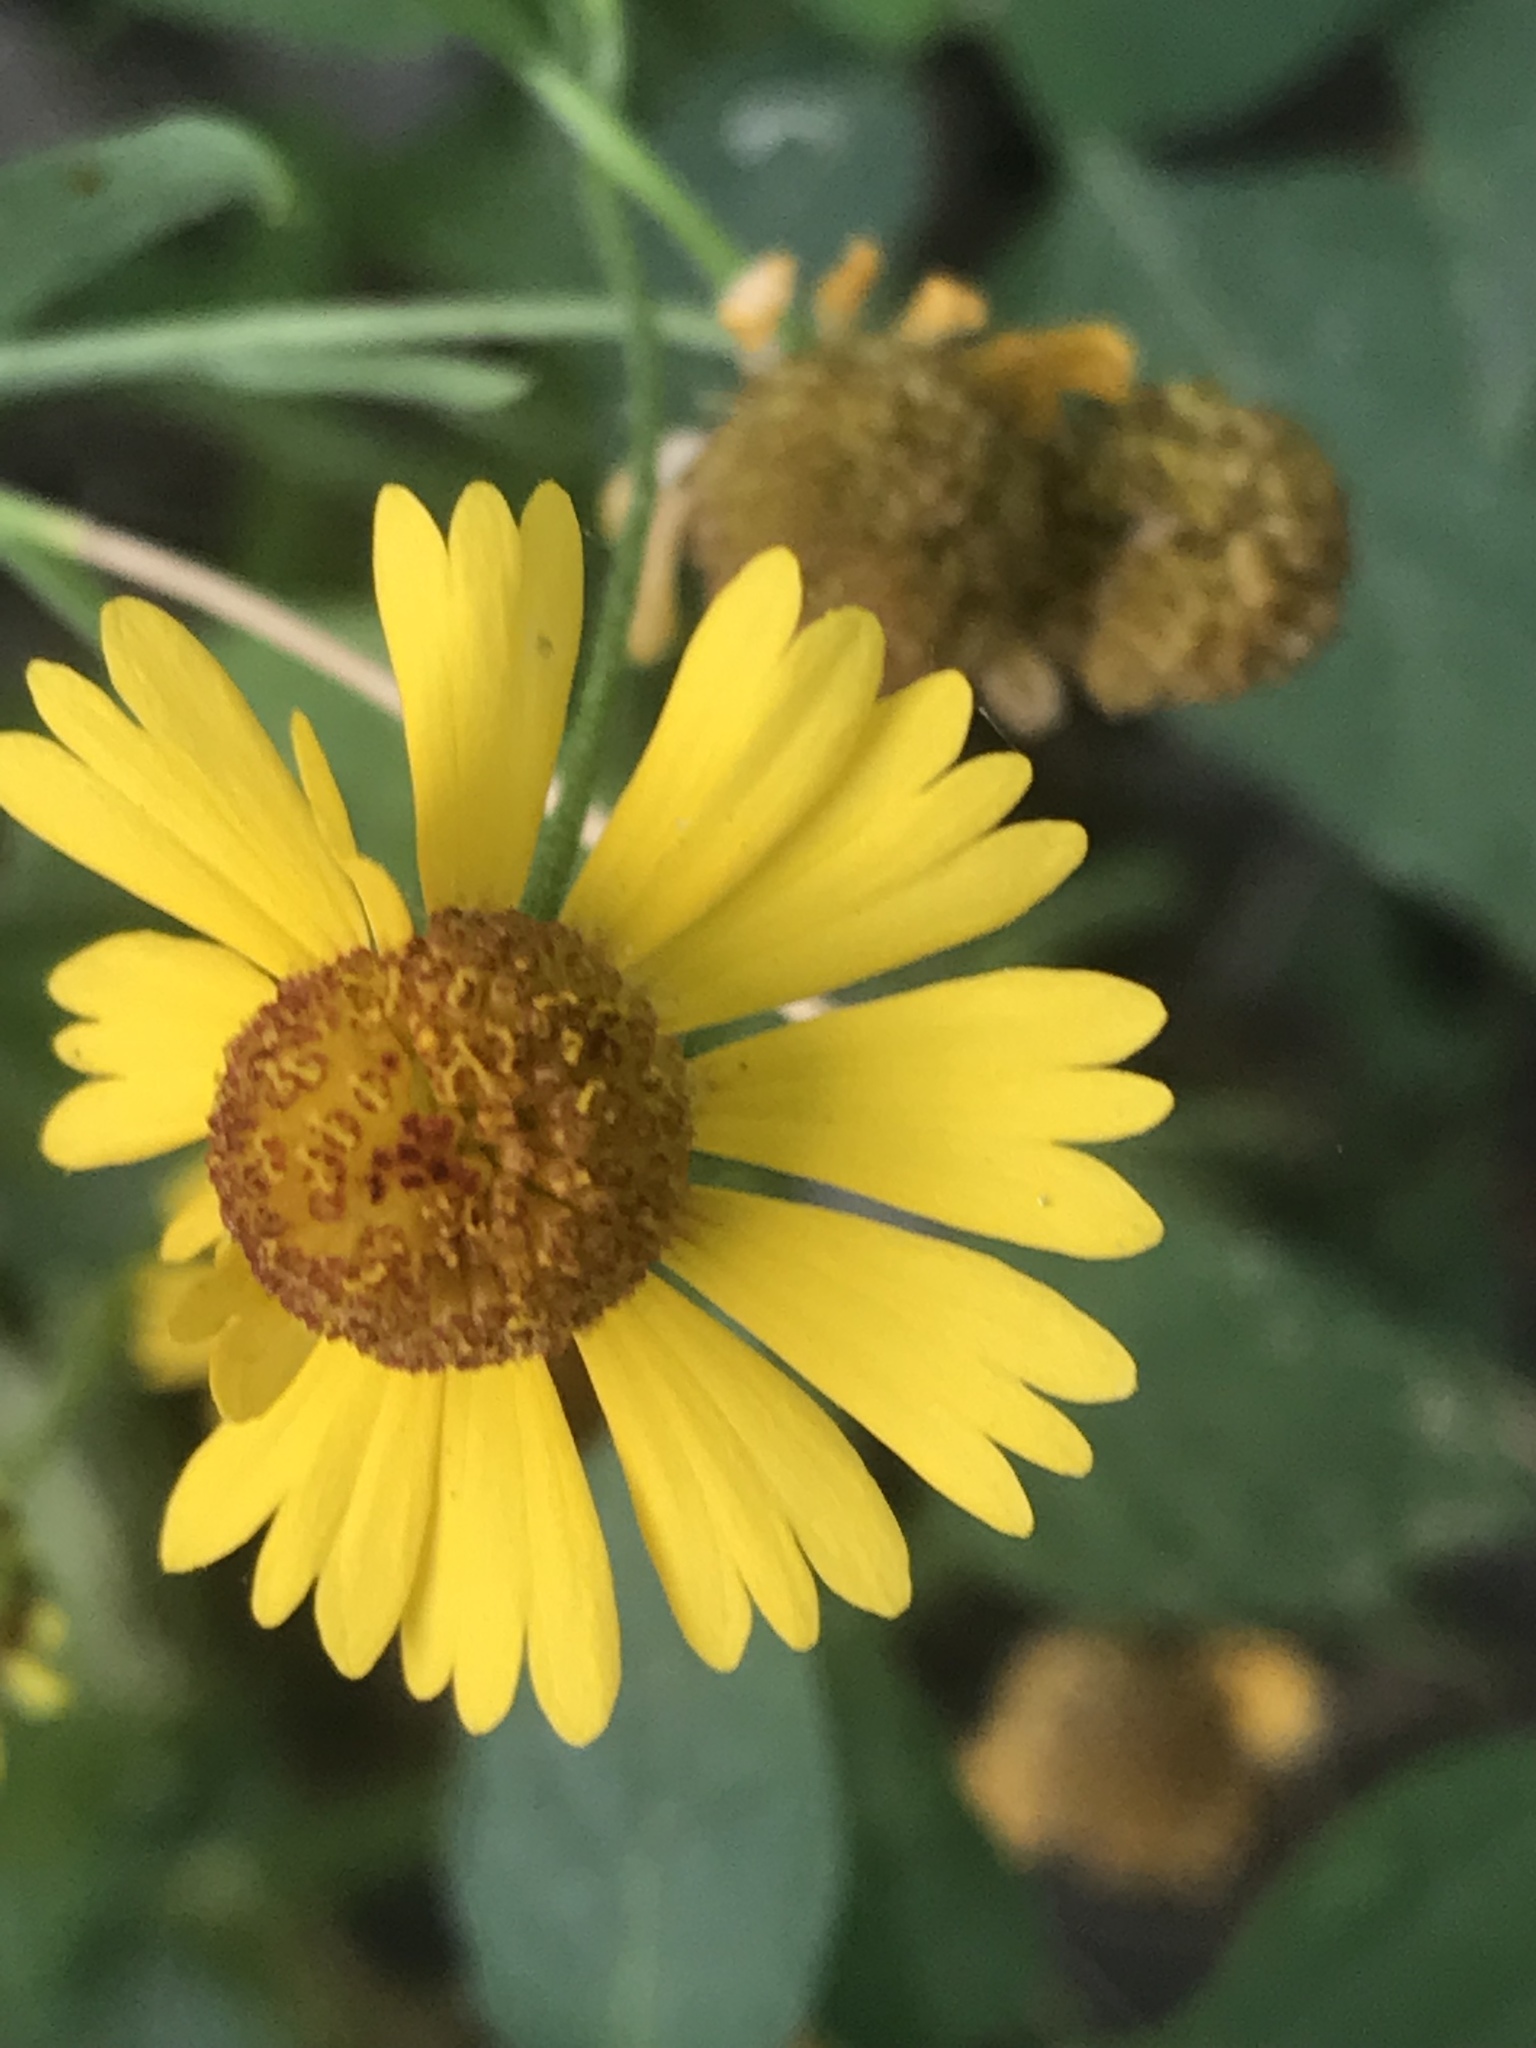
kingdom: Plantae
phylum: Tracheophyta
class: Magnoliopsida
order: Asterales
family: Asteraceae
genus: Helenium
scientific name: Helenium amphibolum
